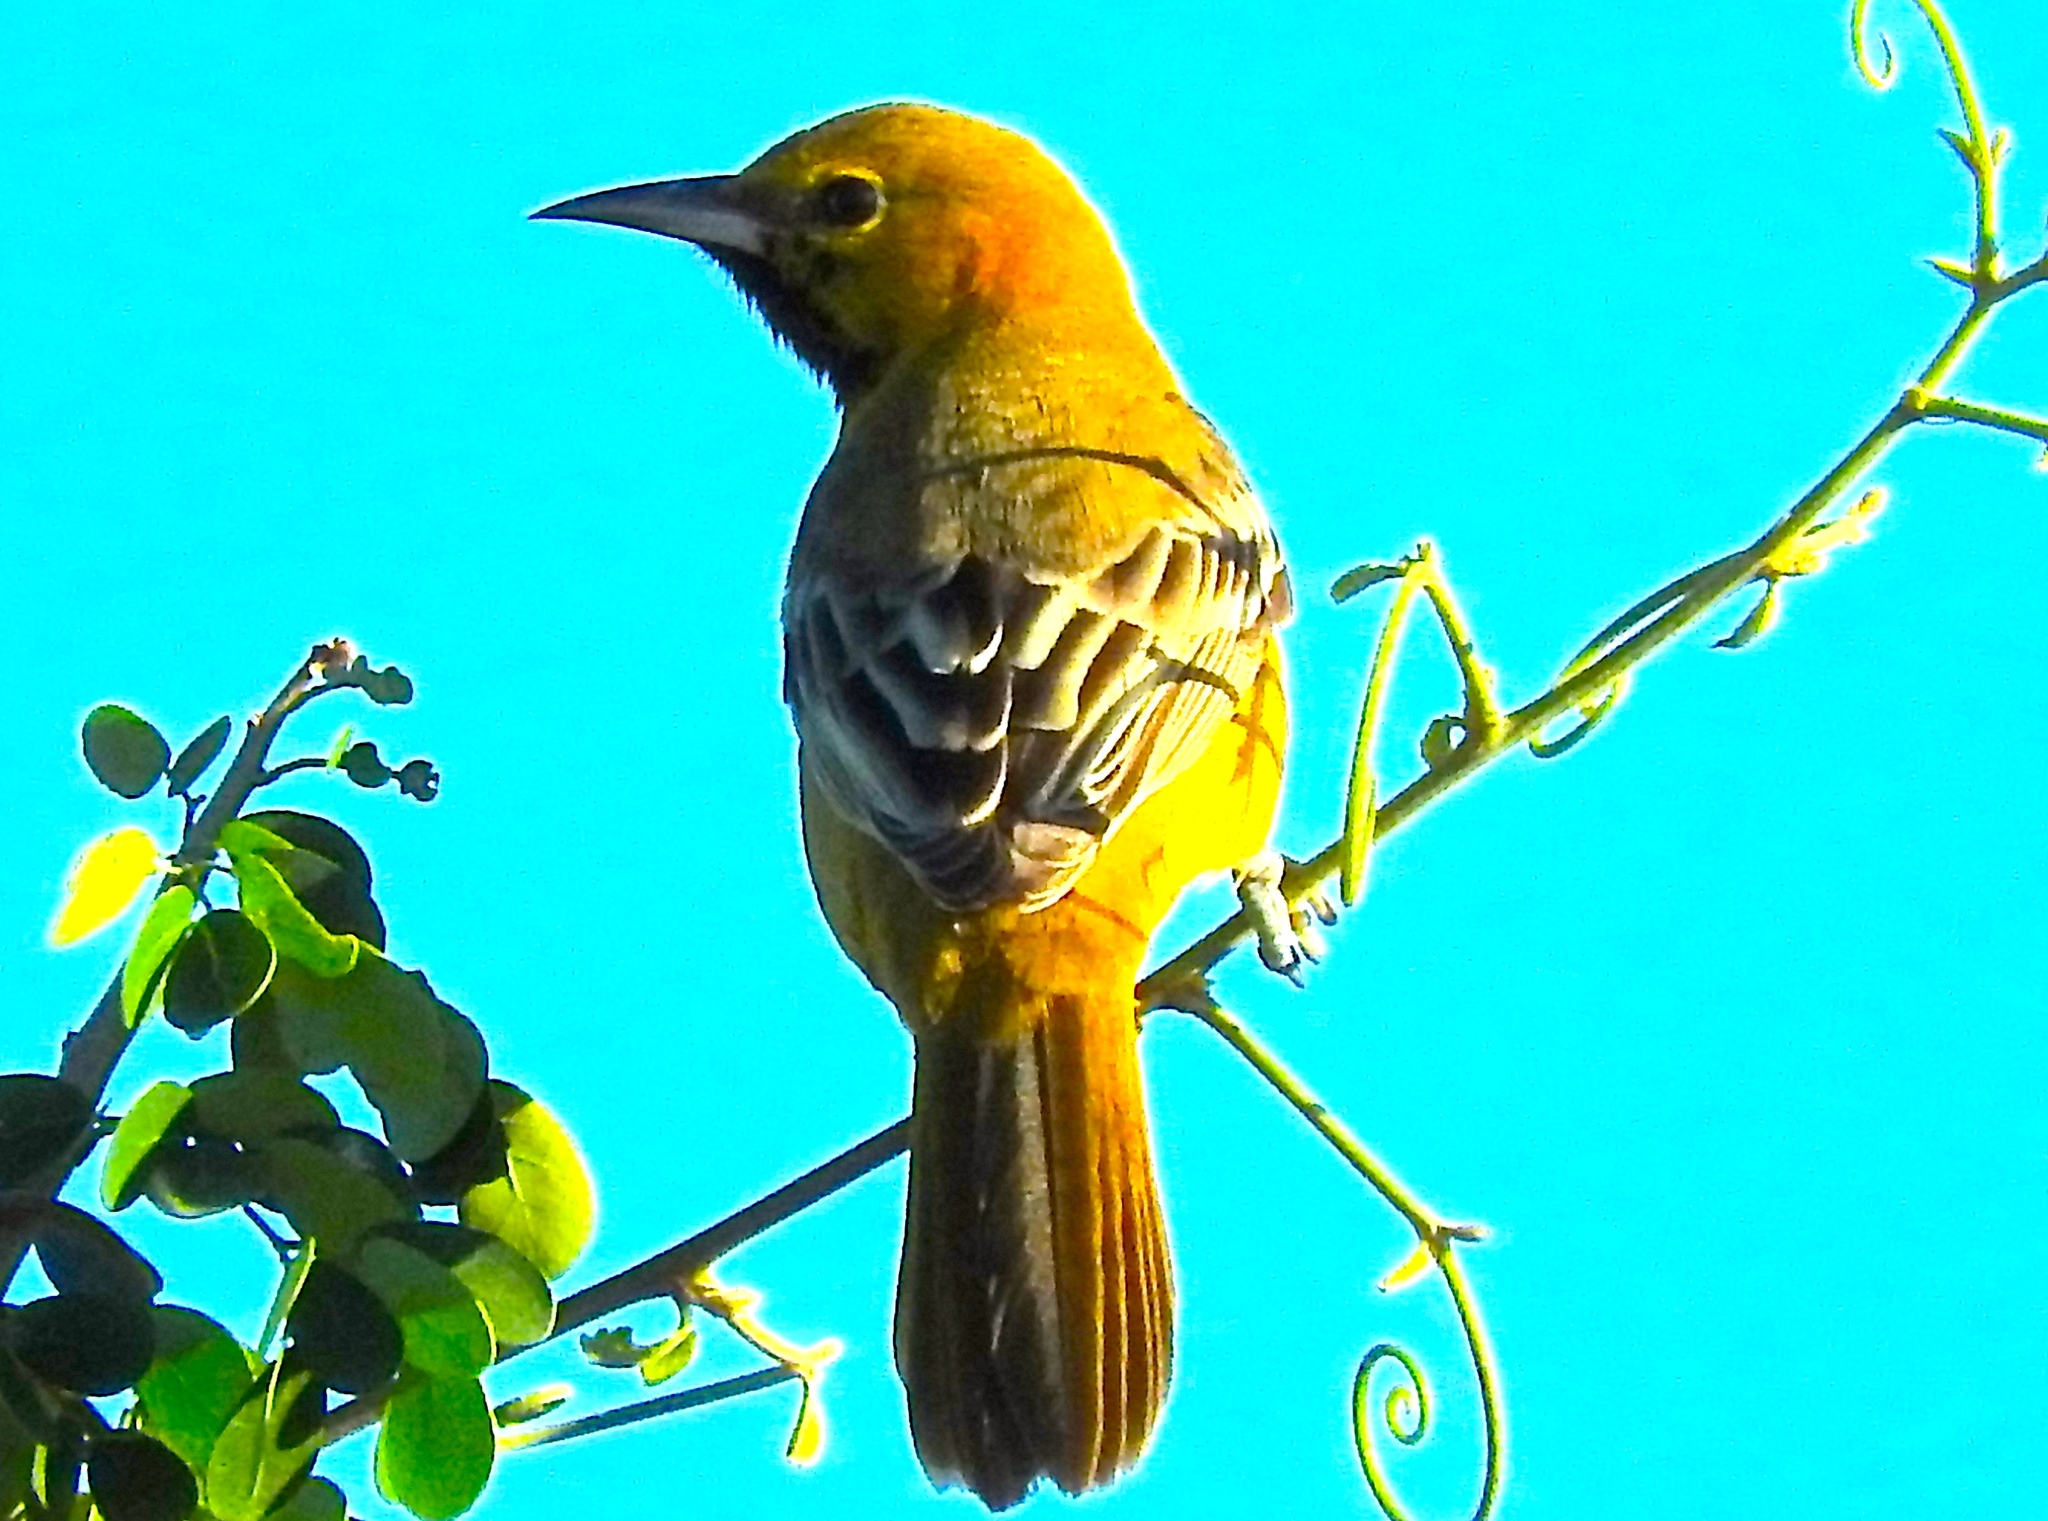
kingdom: Animalia
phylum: Chordata
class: Aves
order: Passeriformes
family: Icteridae
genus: Icterus
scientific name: Icterus spurius
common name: Orchard oriole
